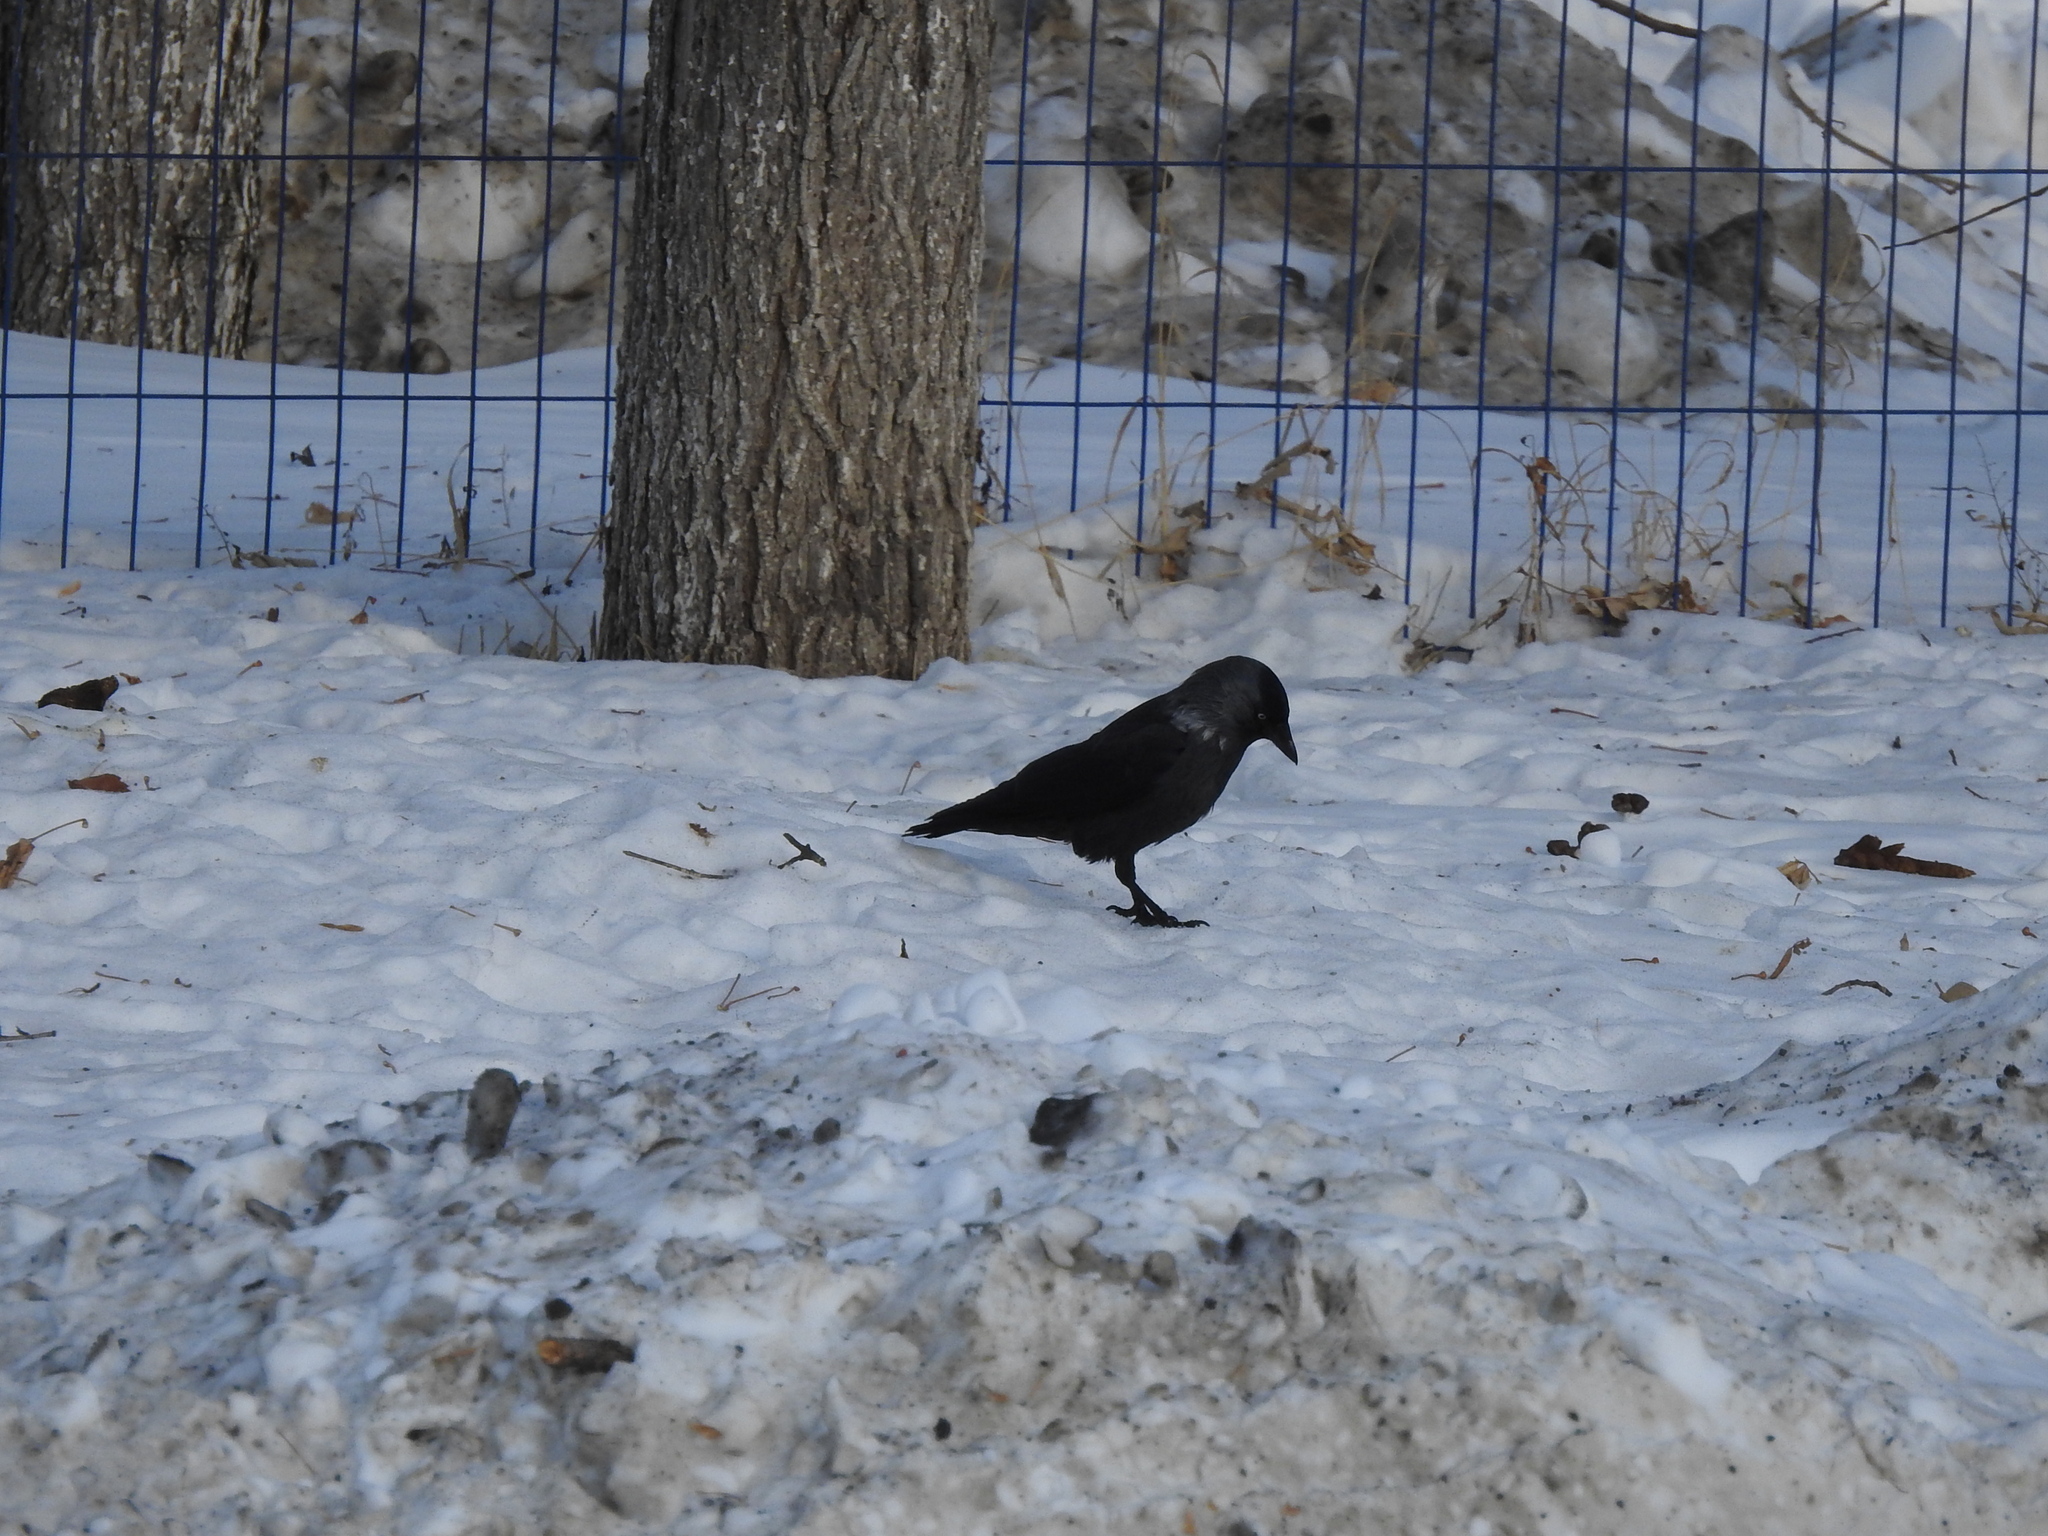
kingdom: Animalia
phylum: Chordata
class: Aves
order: Passeriformes
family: Corvidae
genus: Coloeus
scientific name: Coloeus monedula
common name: Western jackdaw
